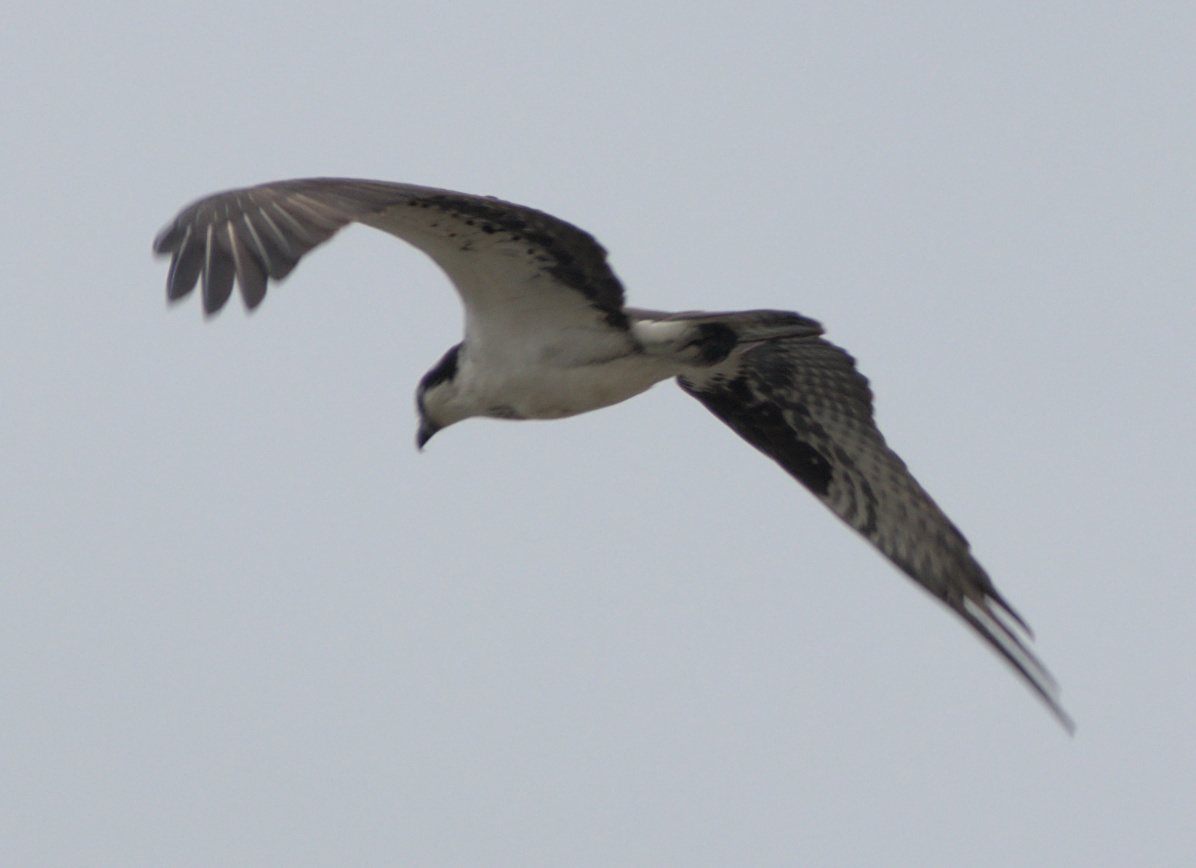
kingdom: Animalia
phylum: Chordata
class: Aves
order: Accipitriformes
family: Pandionidae
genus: Pandion
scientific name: Pandion haliaetus
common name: Osprey
